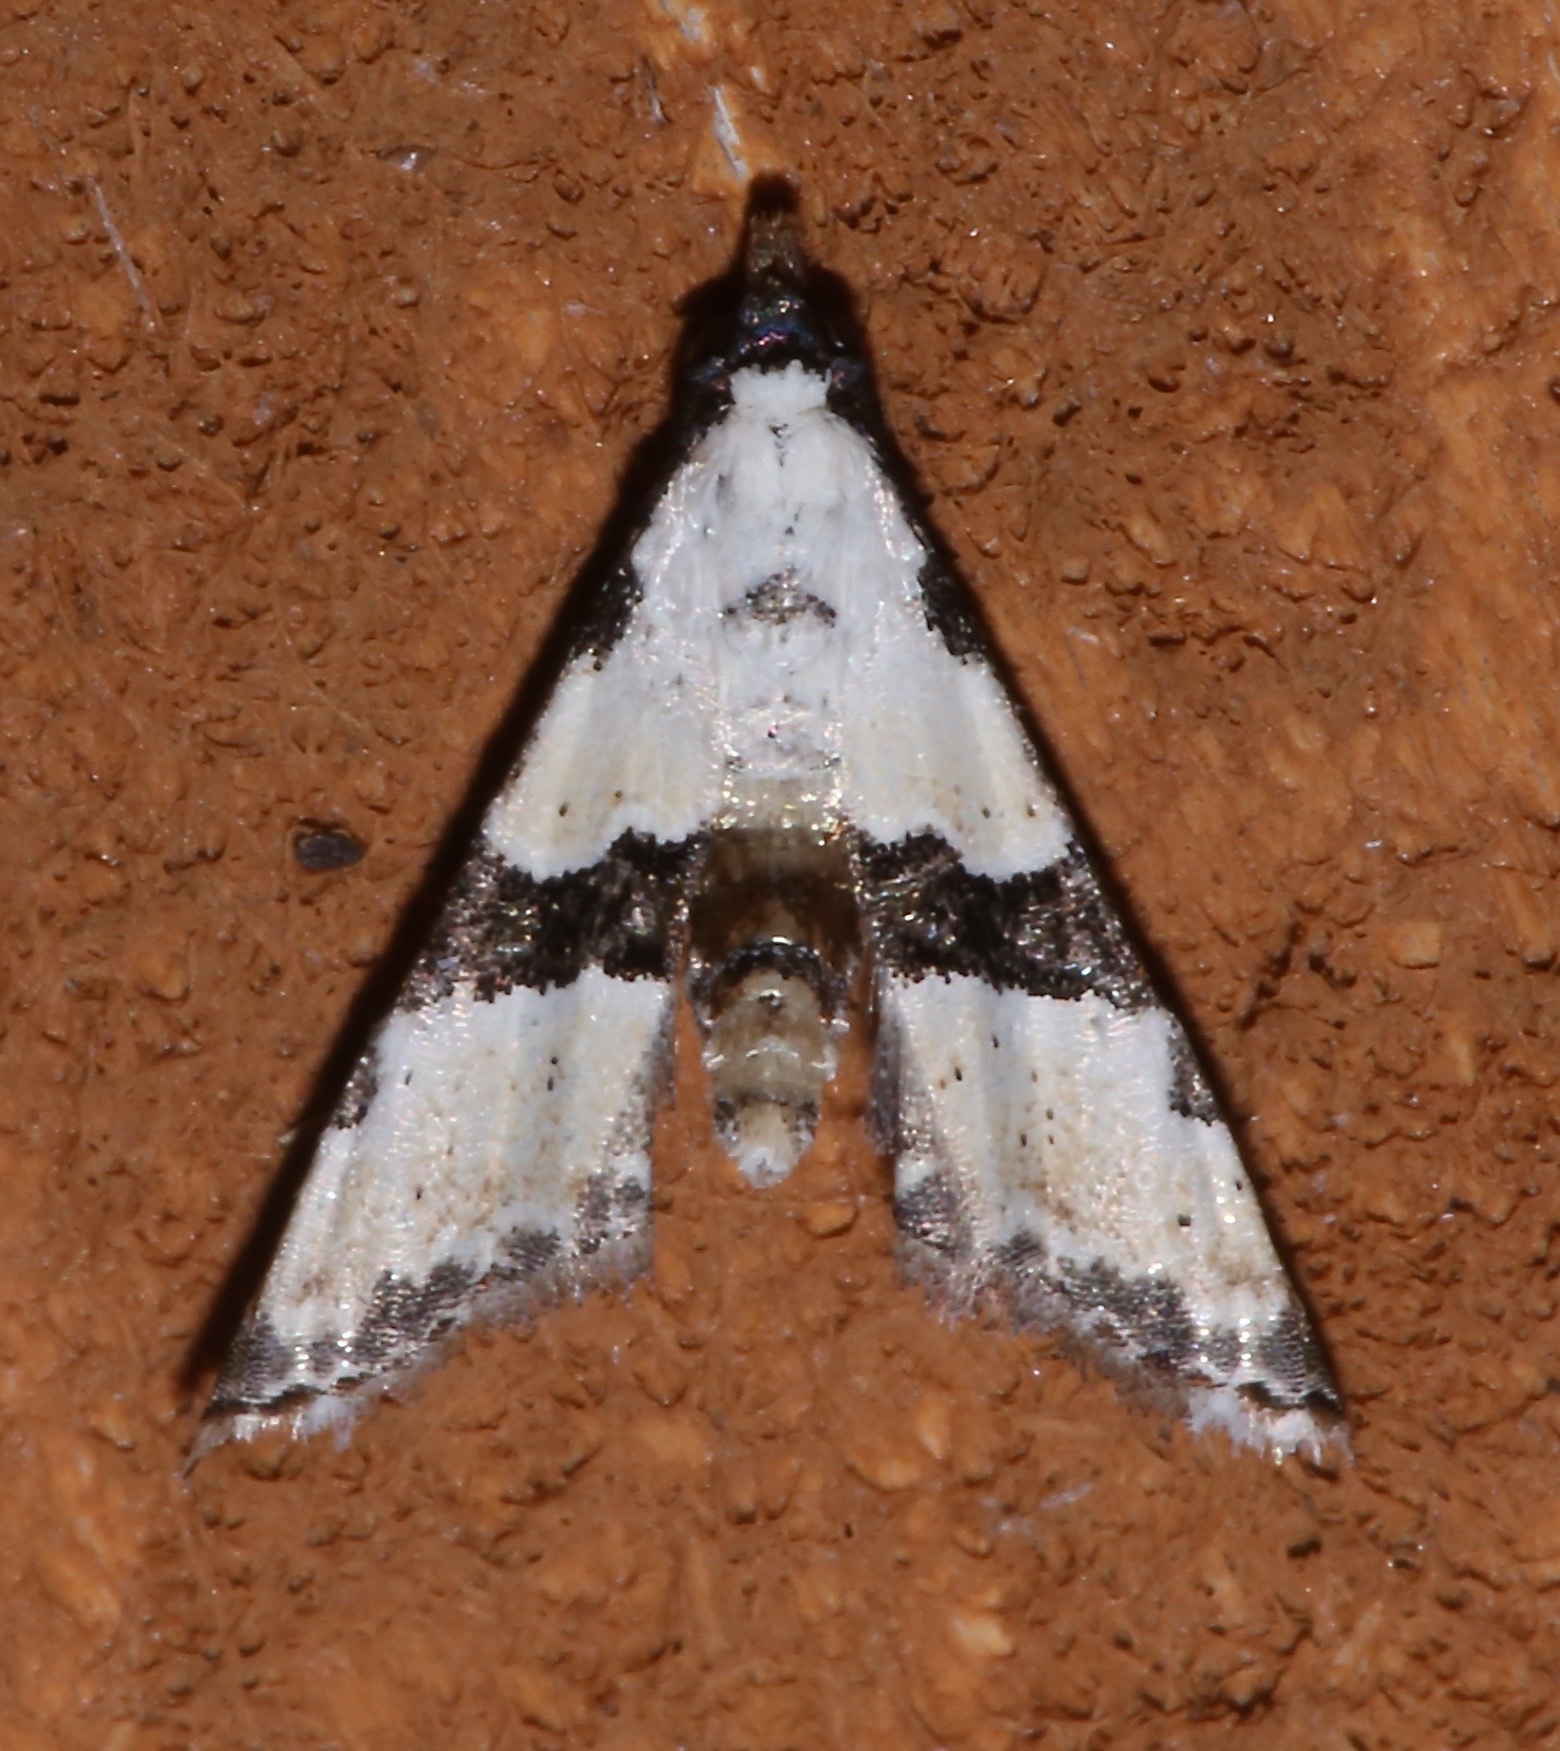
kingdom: Animalia
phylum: Arthropoda
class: Insecta
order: Lepidoptera
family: Noctuidae
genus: Nigetia
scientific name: Nigetia formosalis
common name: Thin-winged owlet
